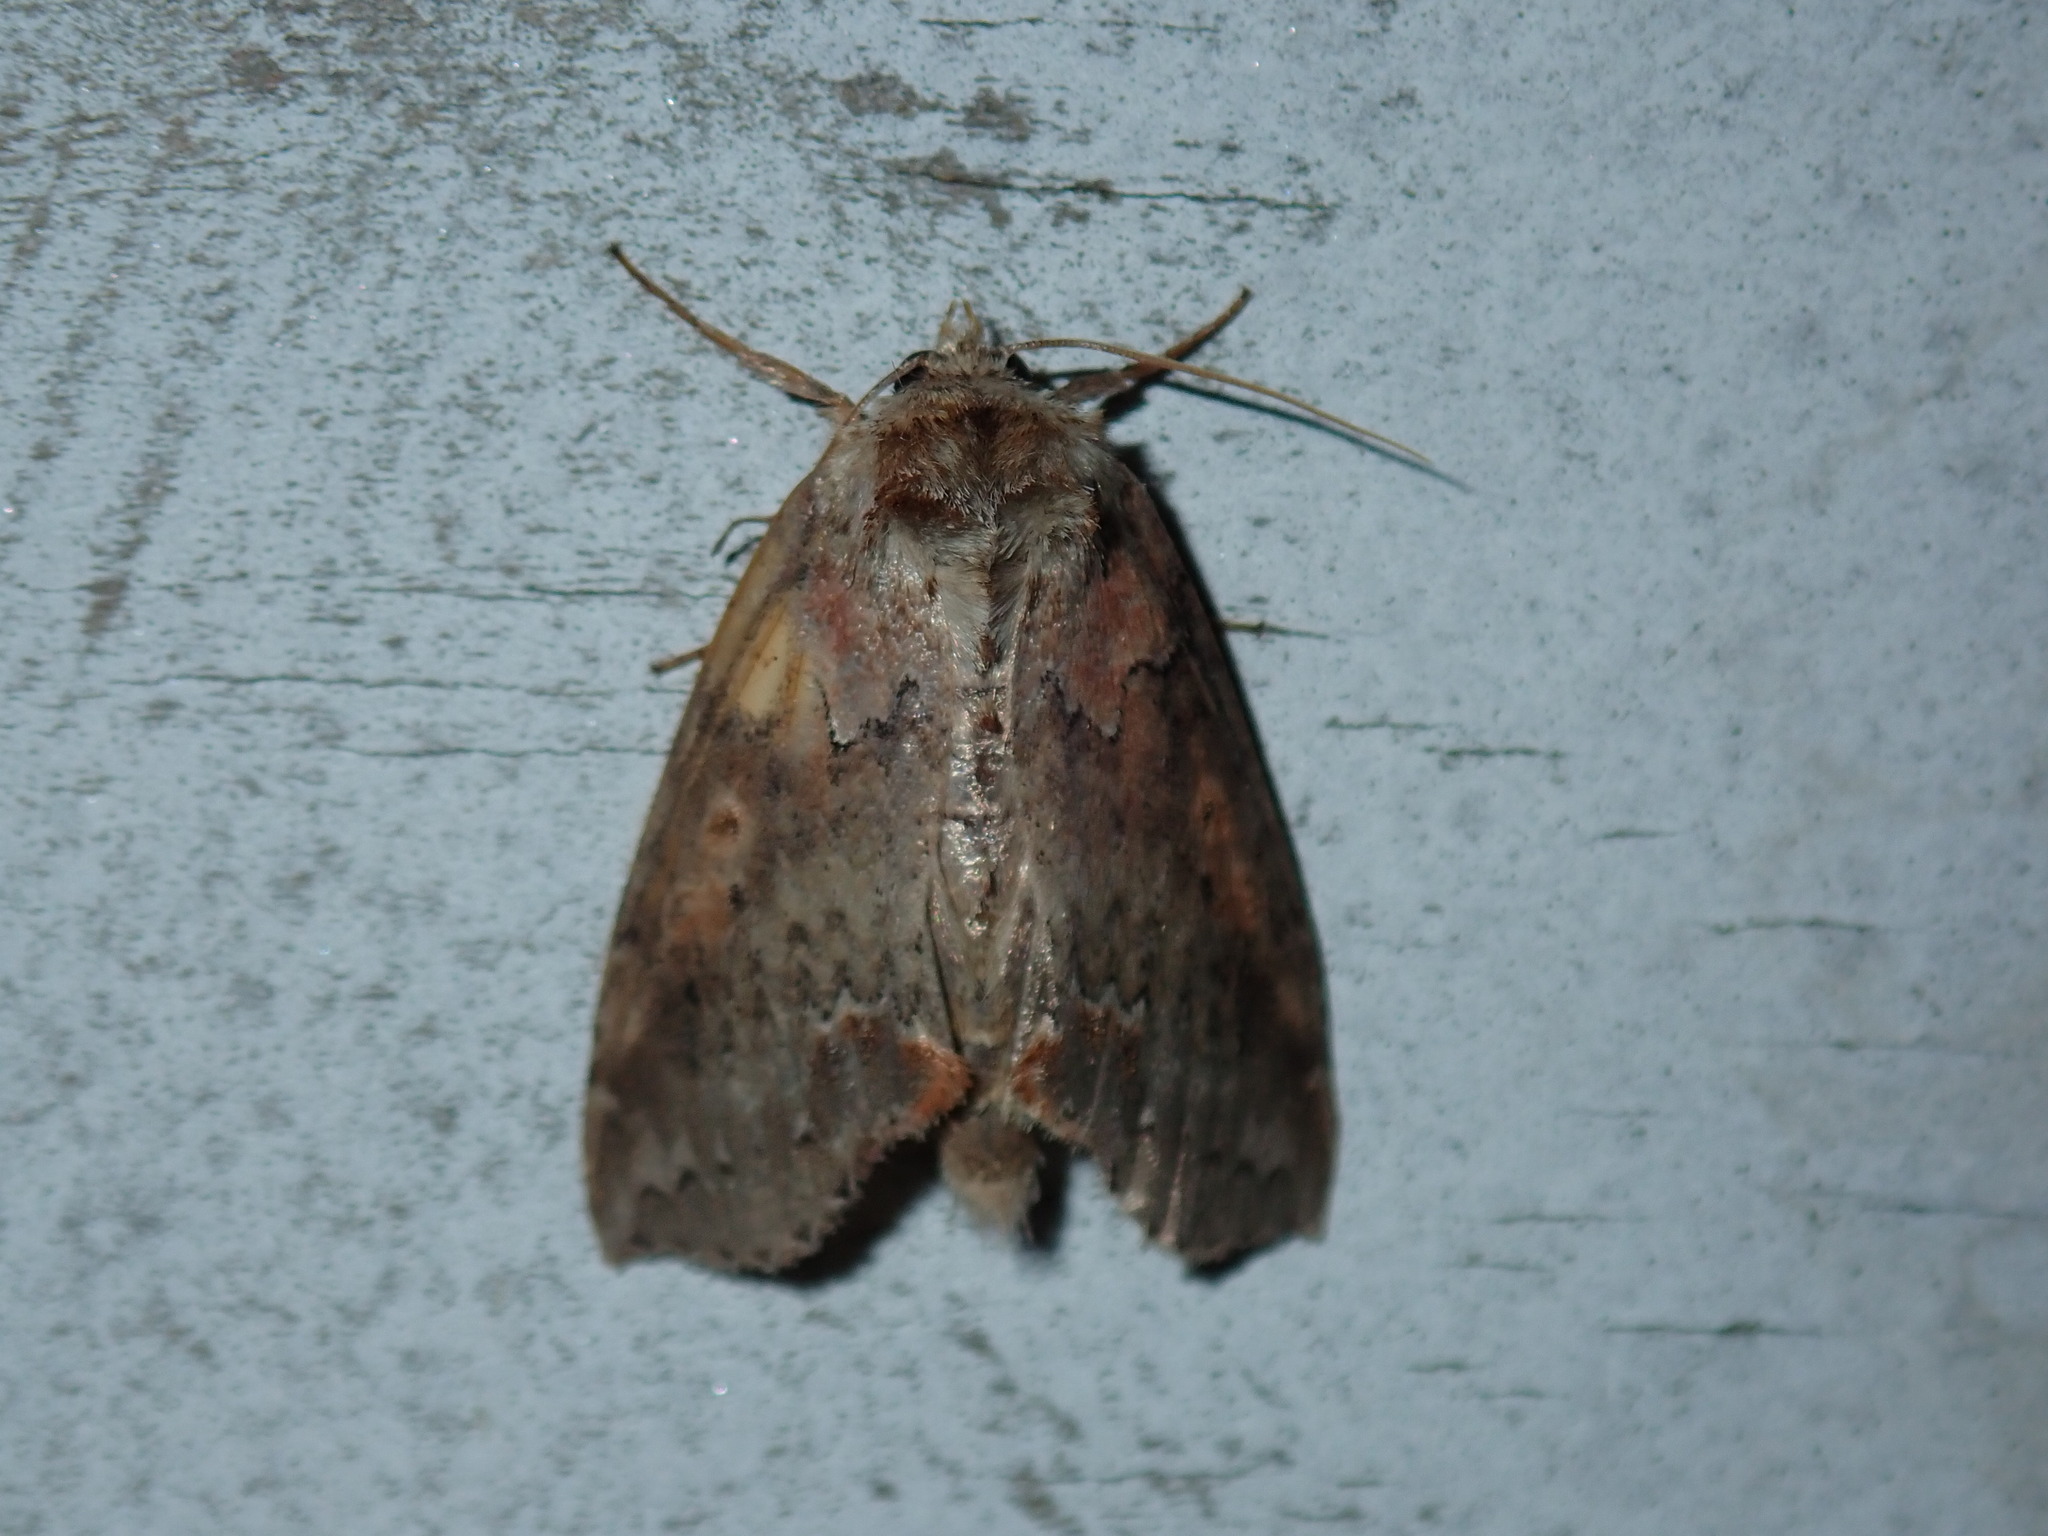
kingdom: Animalia
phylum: Arthropoda
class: Insecta
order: Lepidoptera
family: Drepanidae
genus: Pseudothyatira
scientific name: Pseudothyatira cymatophoroides
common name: Tufted thyatirid moth
